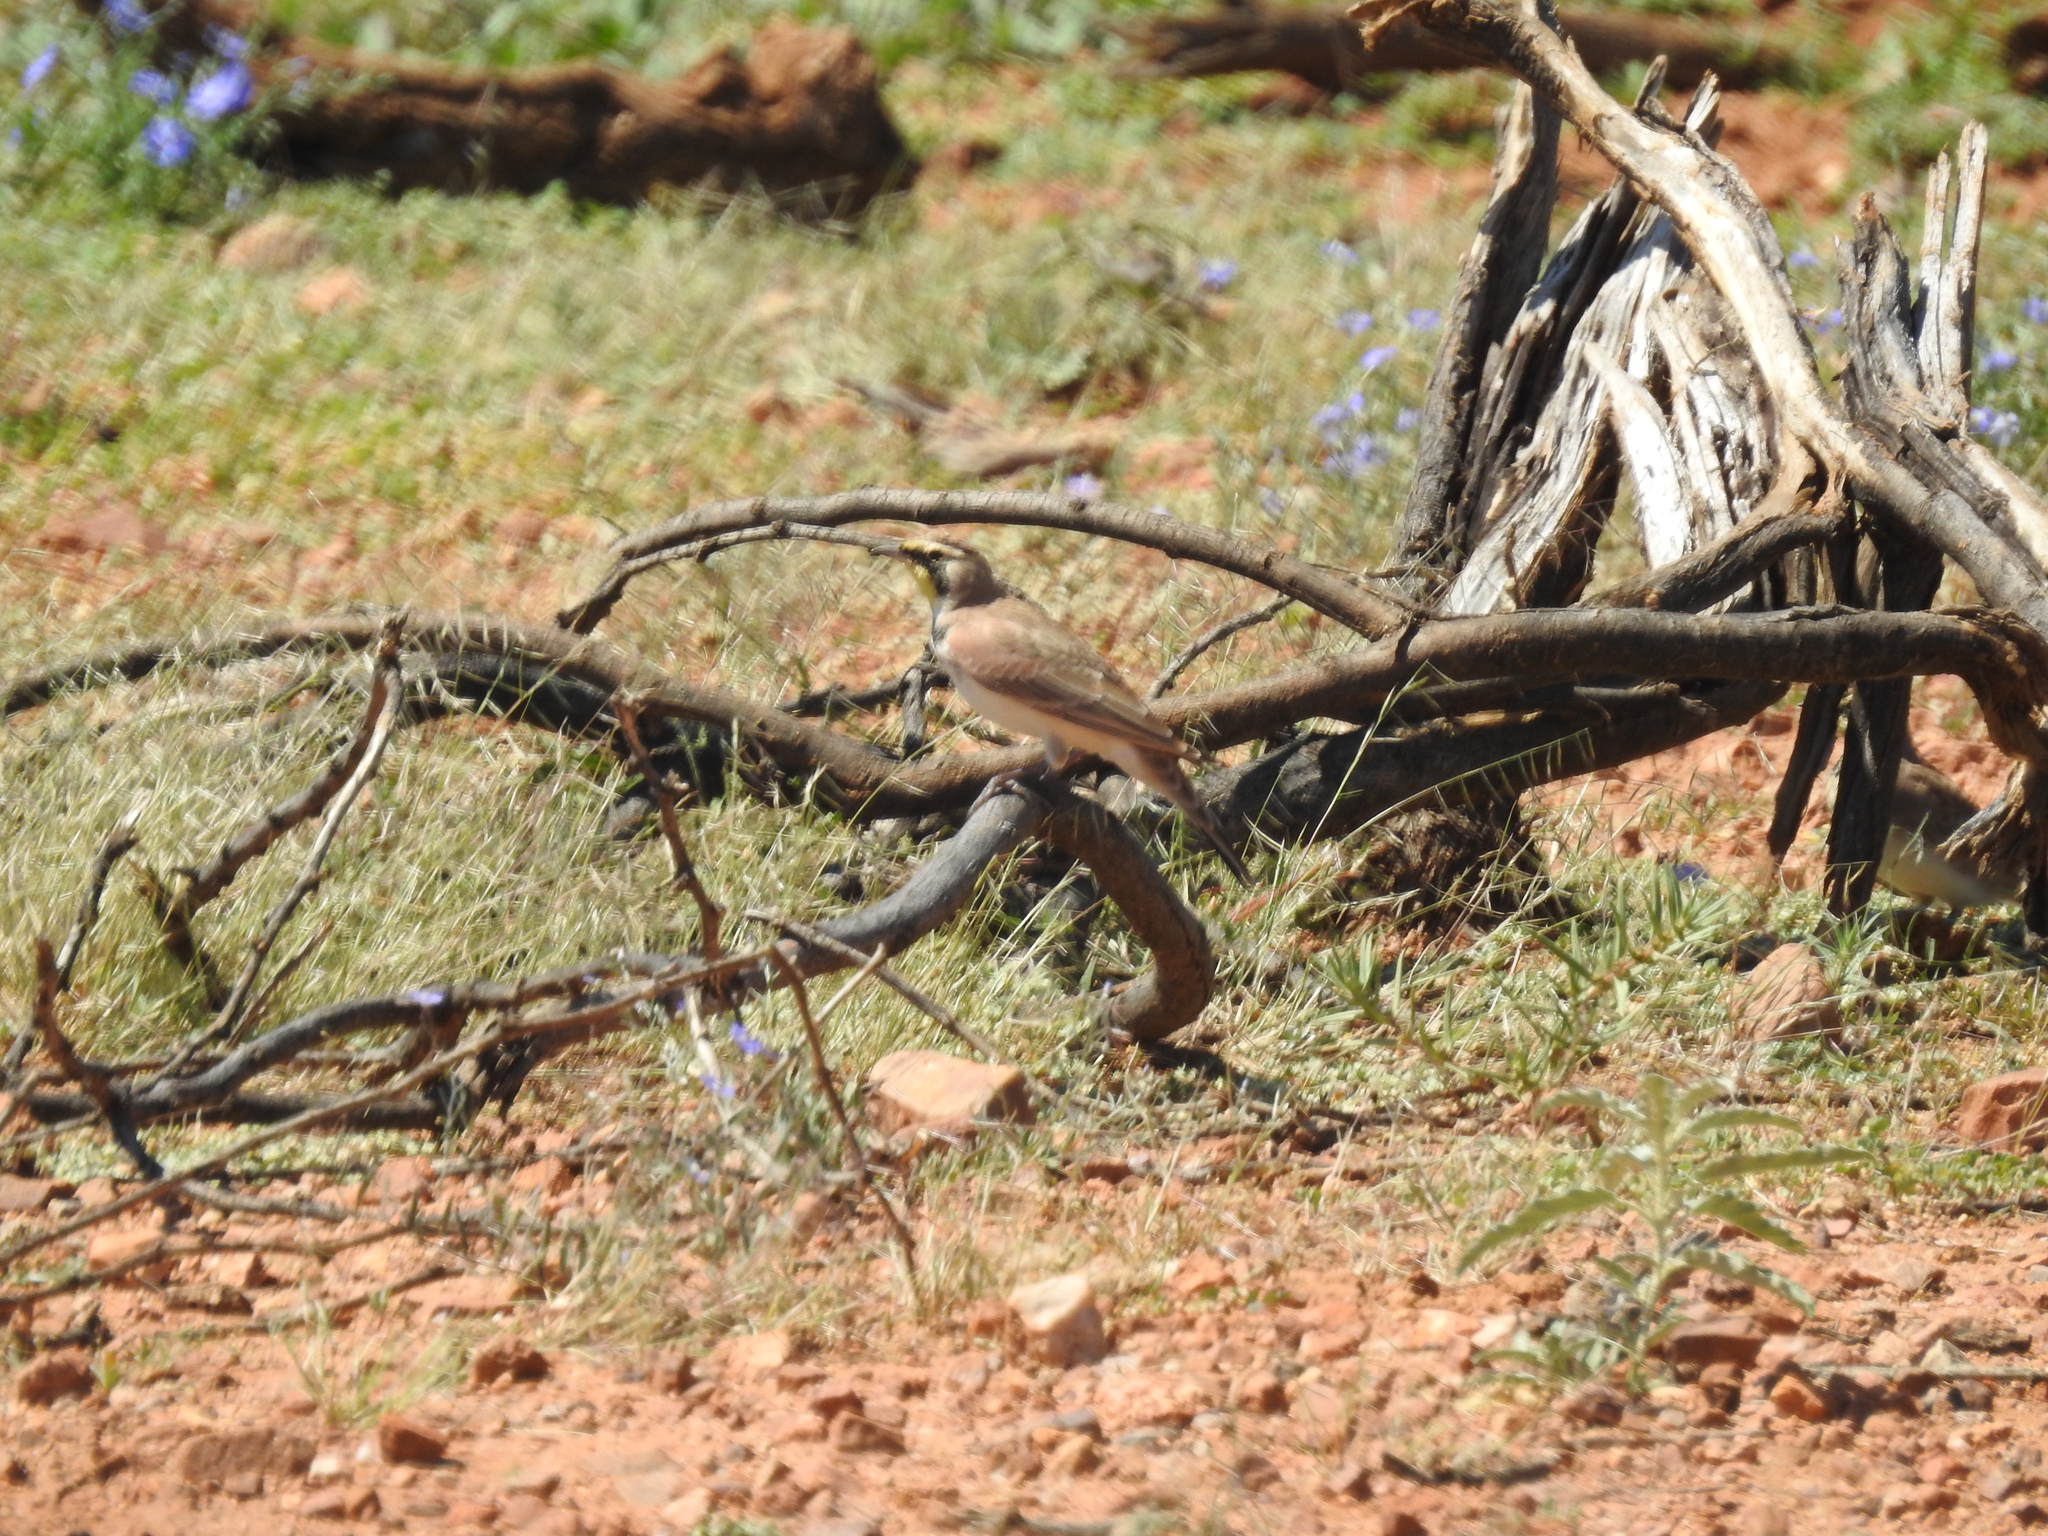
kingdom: Animalia
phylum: Chordata
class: Aves
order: Passeriformes
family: Alaudidae
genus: Eremophila
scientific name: Eremophila alpestris
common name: Horned lark
